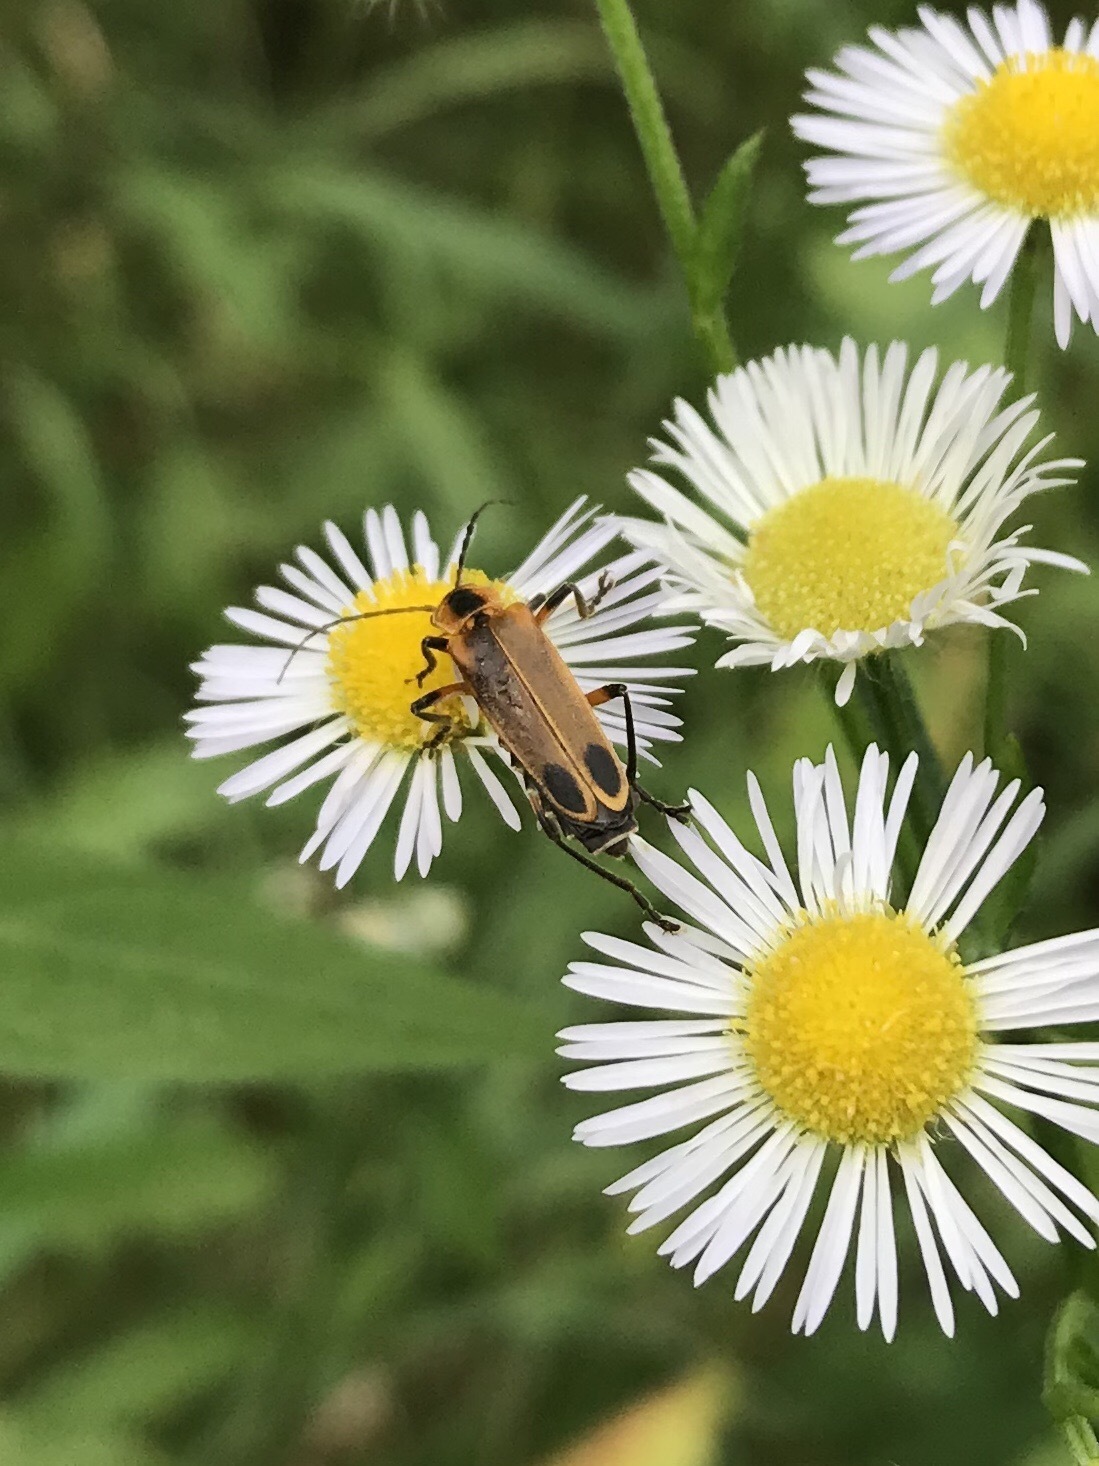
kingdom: Animalia
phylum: Arthropoda
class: Insecta
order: Coleoptera
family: Cantharidae
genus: Chauliognathus
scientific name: Chauliognathus marginatus
